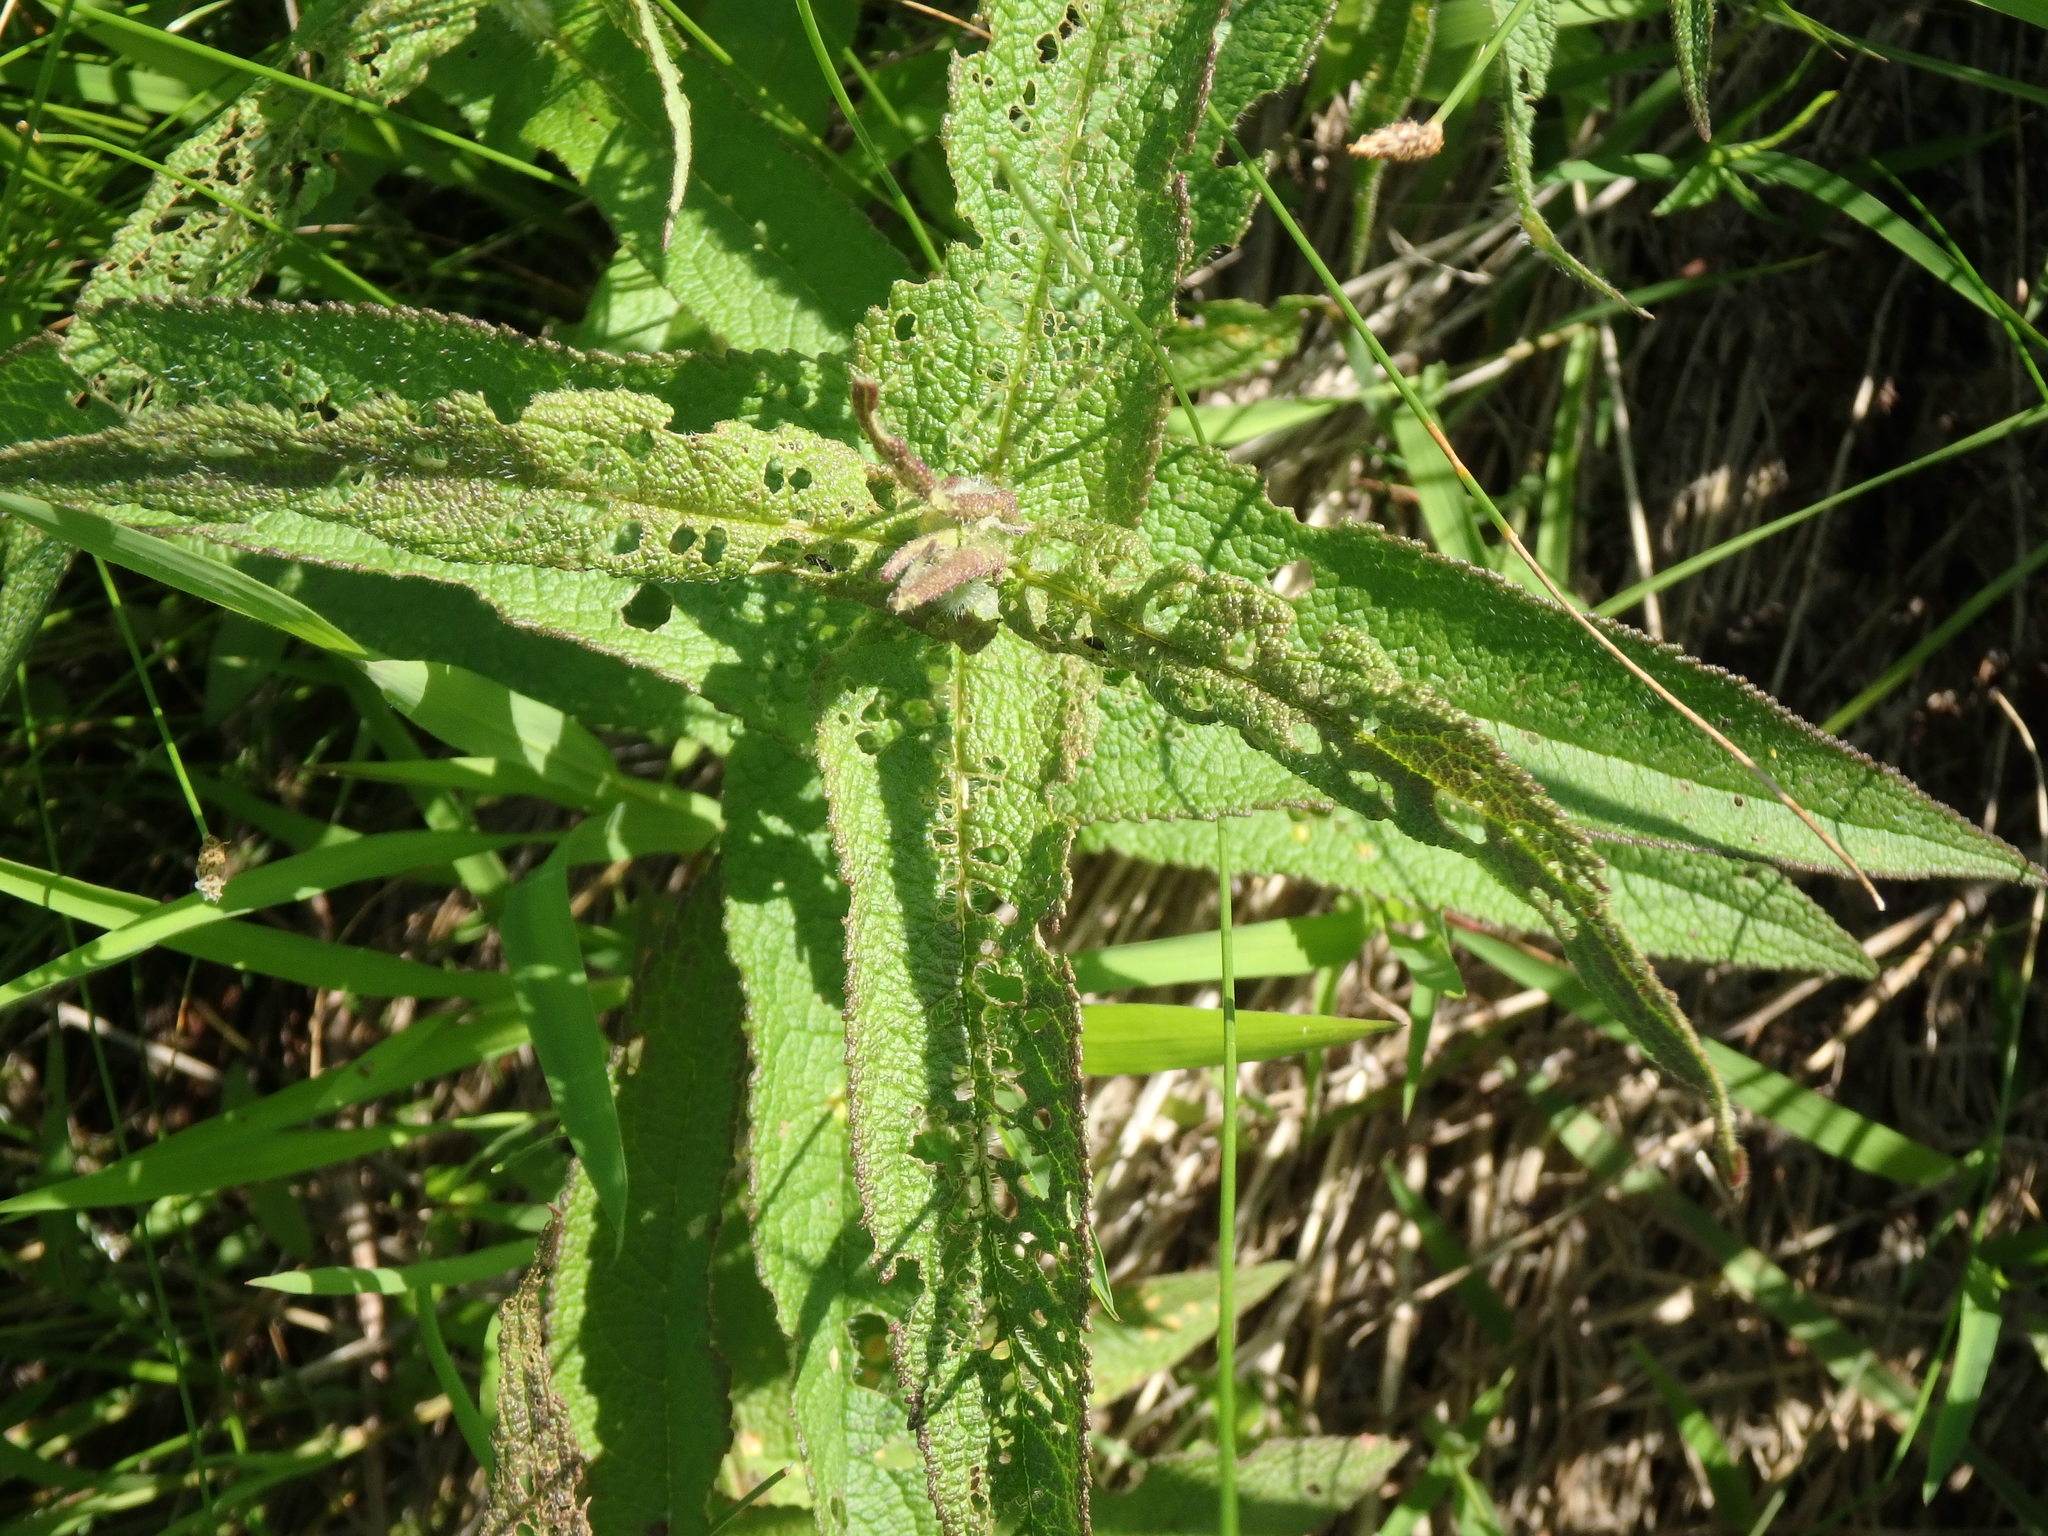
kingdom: Plantae
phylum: Tracheophyta
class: Magnoliopsida
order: Asterales
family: Asteraceae
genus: Eupatorium
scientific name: Eupatorium perfoliatum
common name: Boneset
